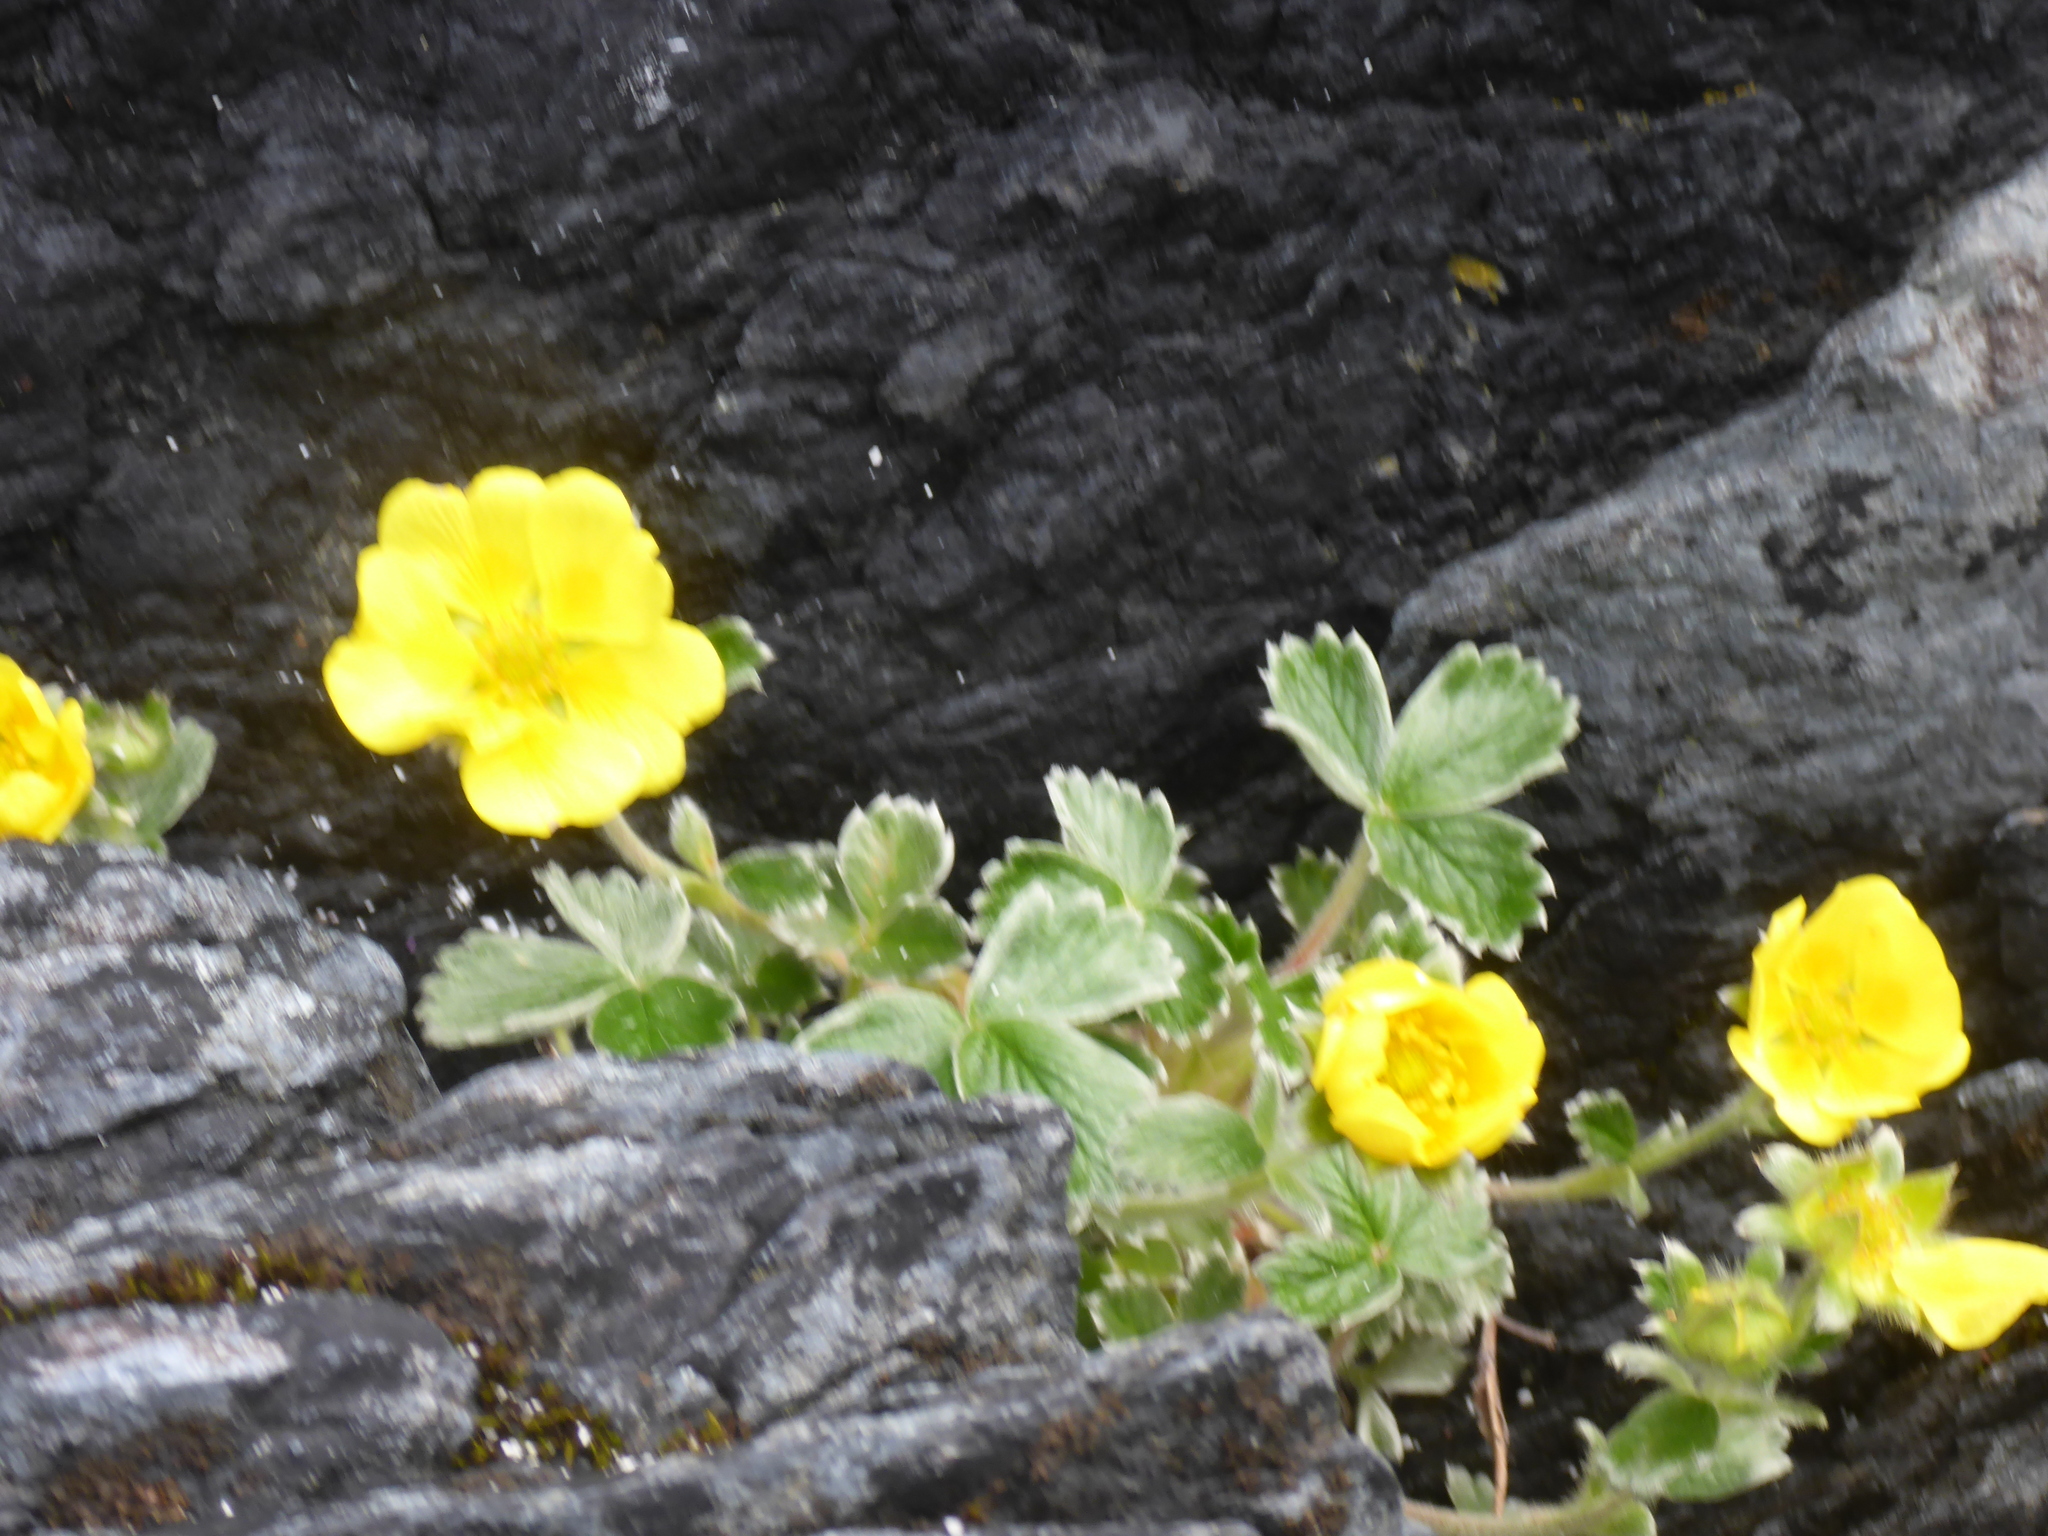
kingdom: Plantae
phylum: Tracheophyta
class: Magnoliopsida
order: Rosales
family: Rosaceae
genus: Potentilla
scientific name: Potentilla villosa
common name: Northern cinquefoil
